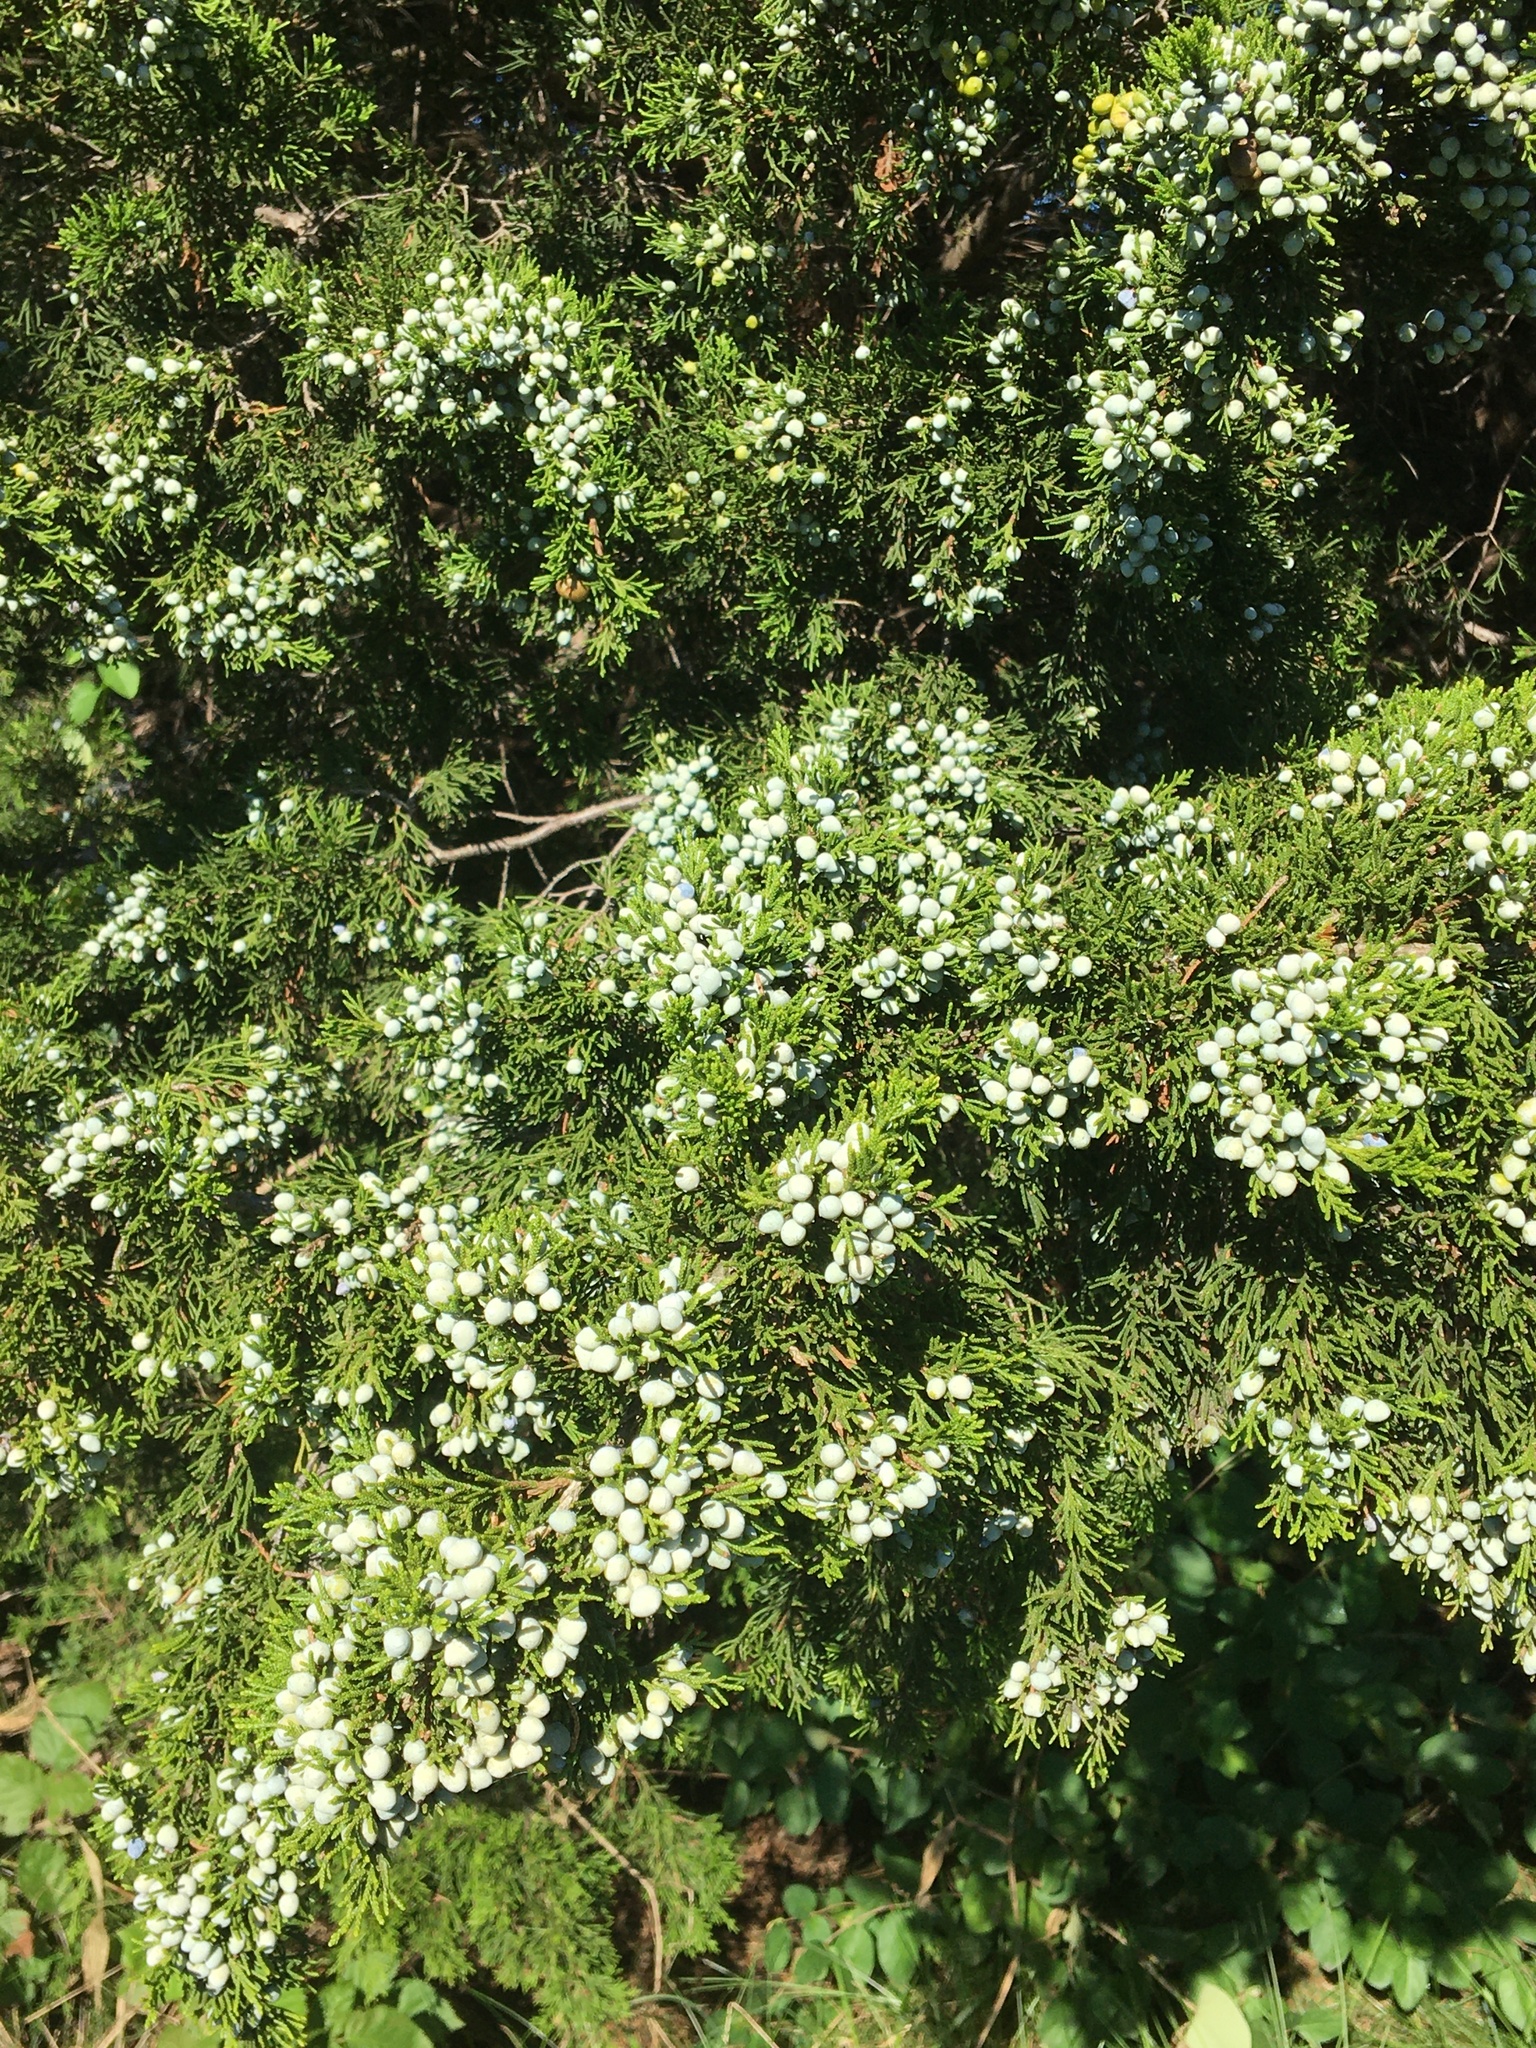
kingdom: Plantae
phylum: Tracheophyta
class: Pinopsida
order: Pinales
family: Cupressaceae
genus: Juniperus
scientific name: Juniperus virginiana
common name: Red juniper
